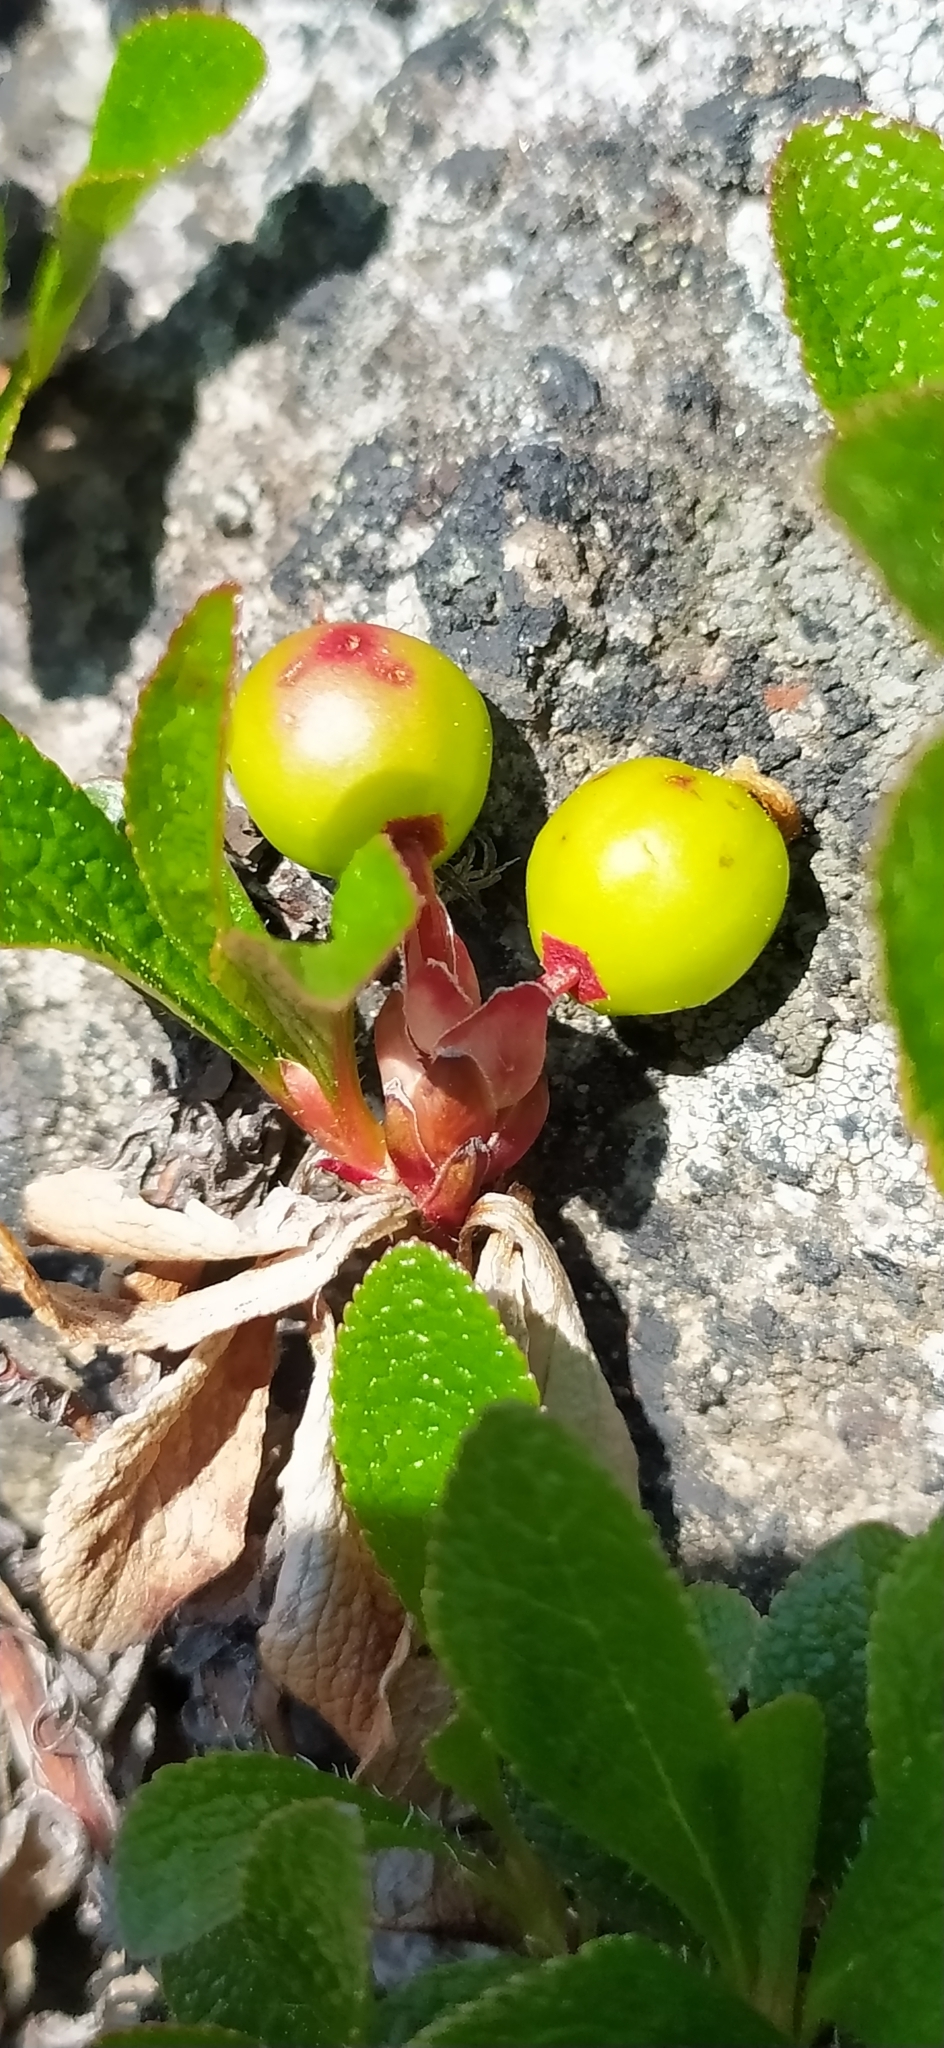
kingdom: Plantae
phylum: Tracheophyta
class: Magnoliopsida
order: Ericales
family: Ericaceae
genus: Arctostaphylos
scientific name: Arctostaphylos alpinus
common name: Alpine bearberry
